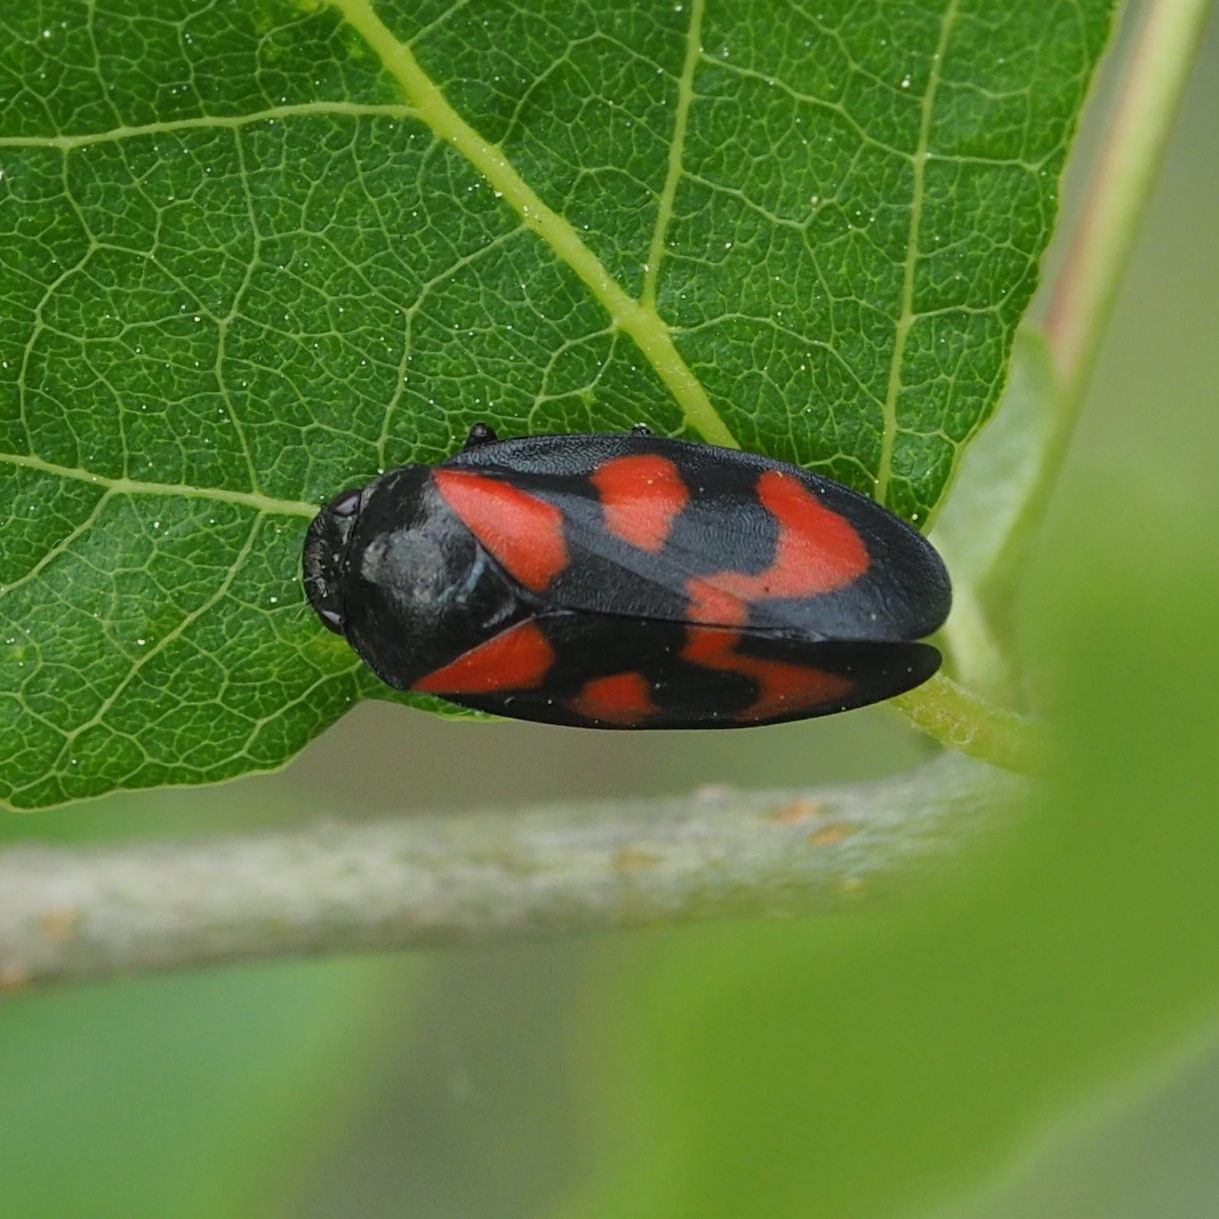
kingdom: Animalia
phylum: Arthropoda
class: Insecta
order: Hemiptera
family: Cercopidae
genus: Cercopis
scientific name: Cercopis vulnerata
